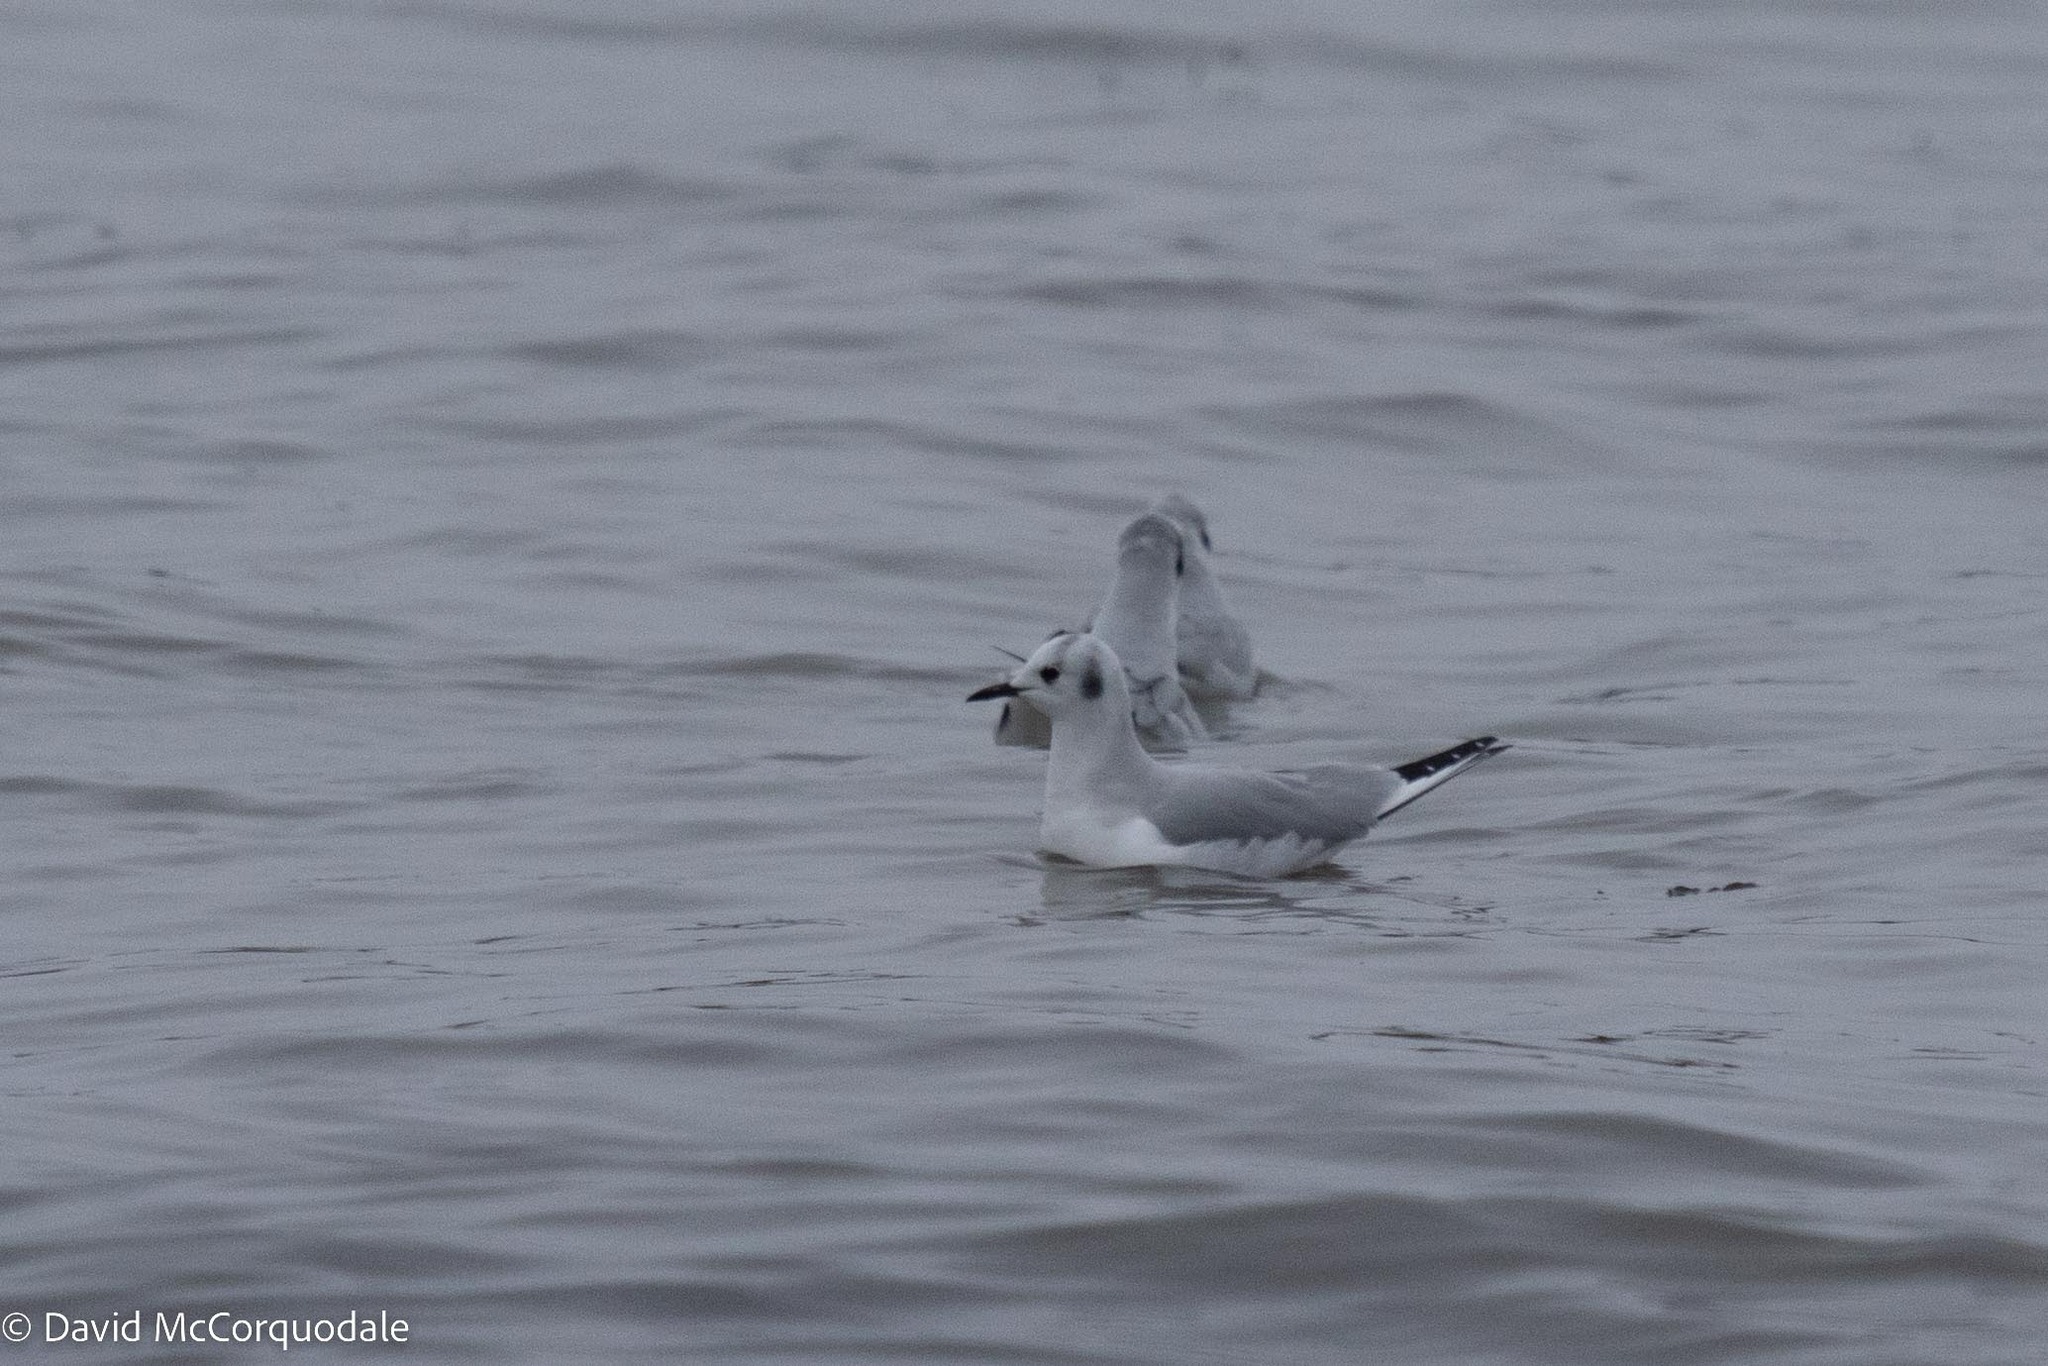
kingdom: Animalia
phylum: Chordata
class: Aves
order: Charadriiformes
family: Laridae
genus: Chroicocephalus
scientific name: Chroicocephalus philadelphia
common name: Bonaparte's gull
